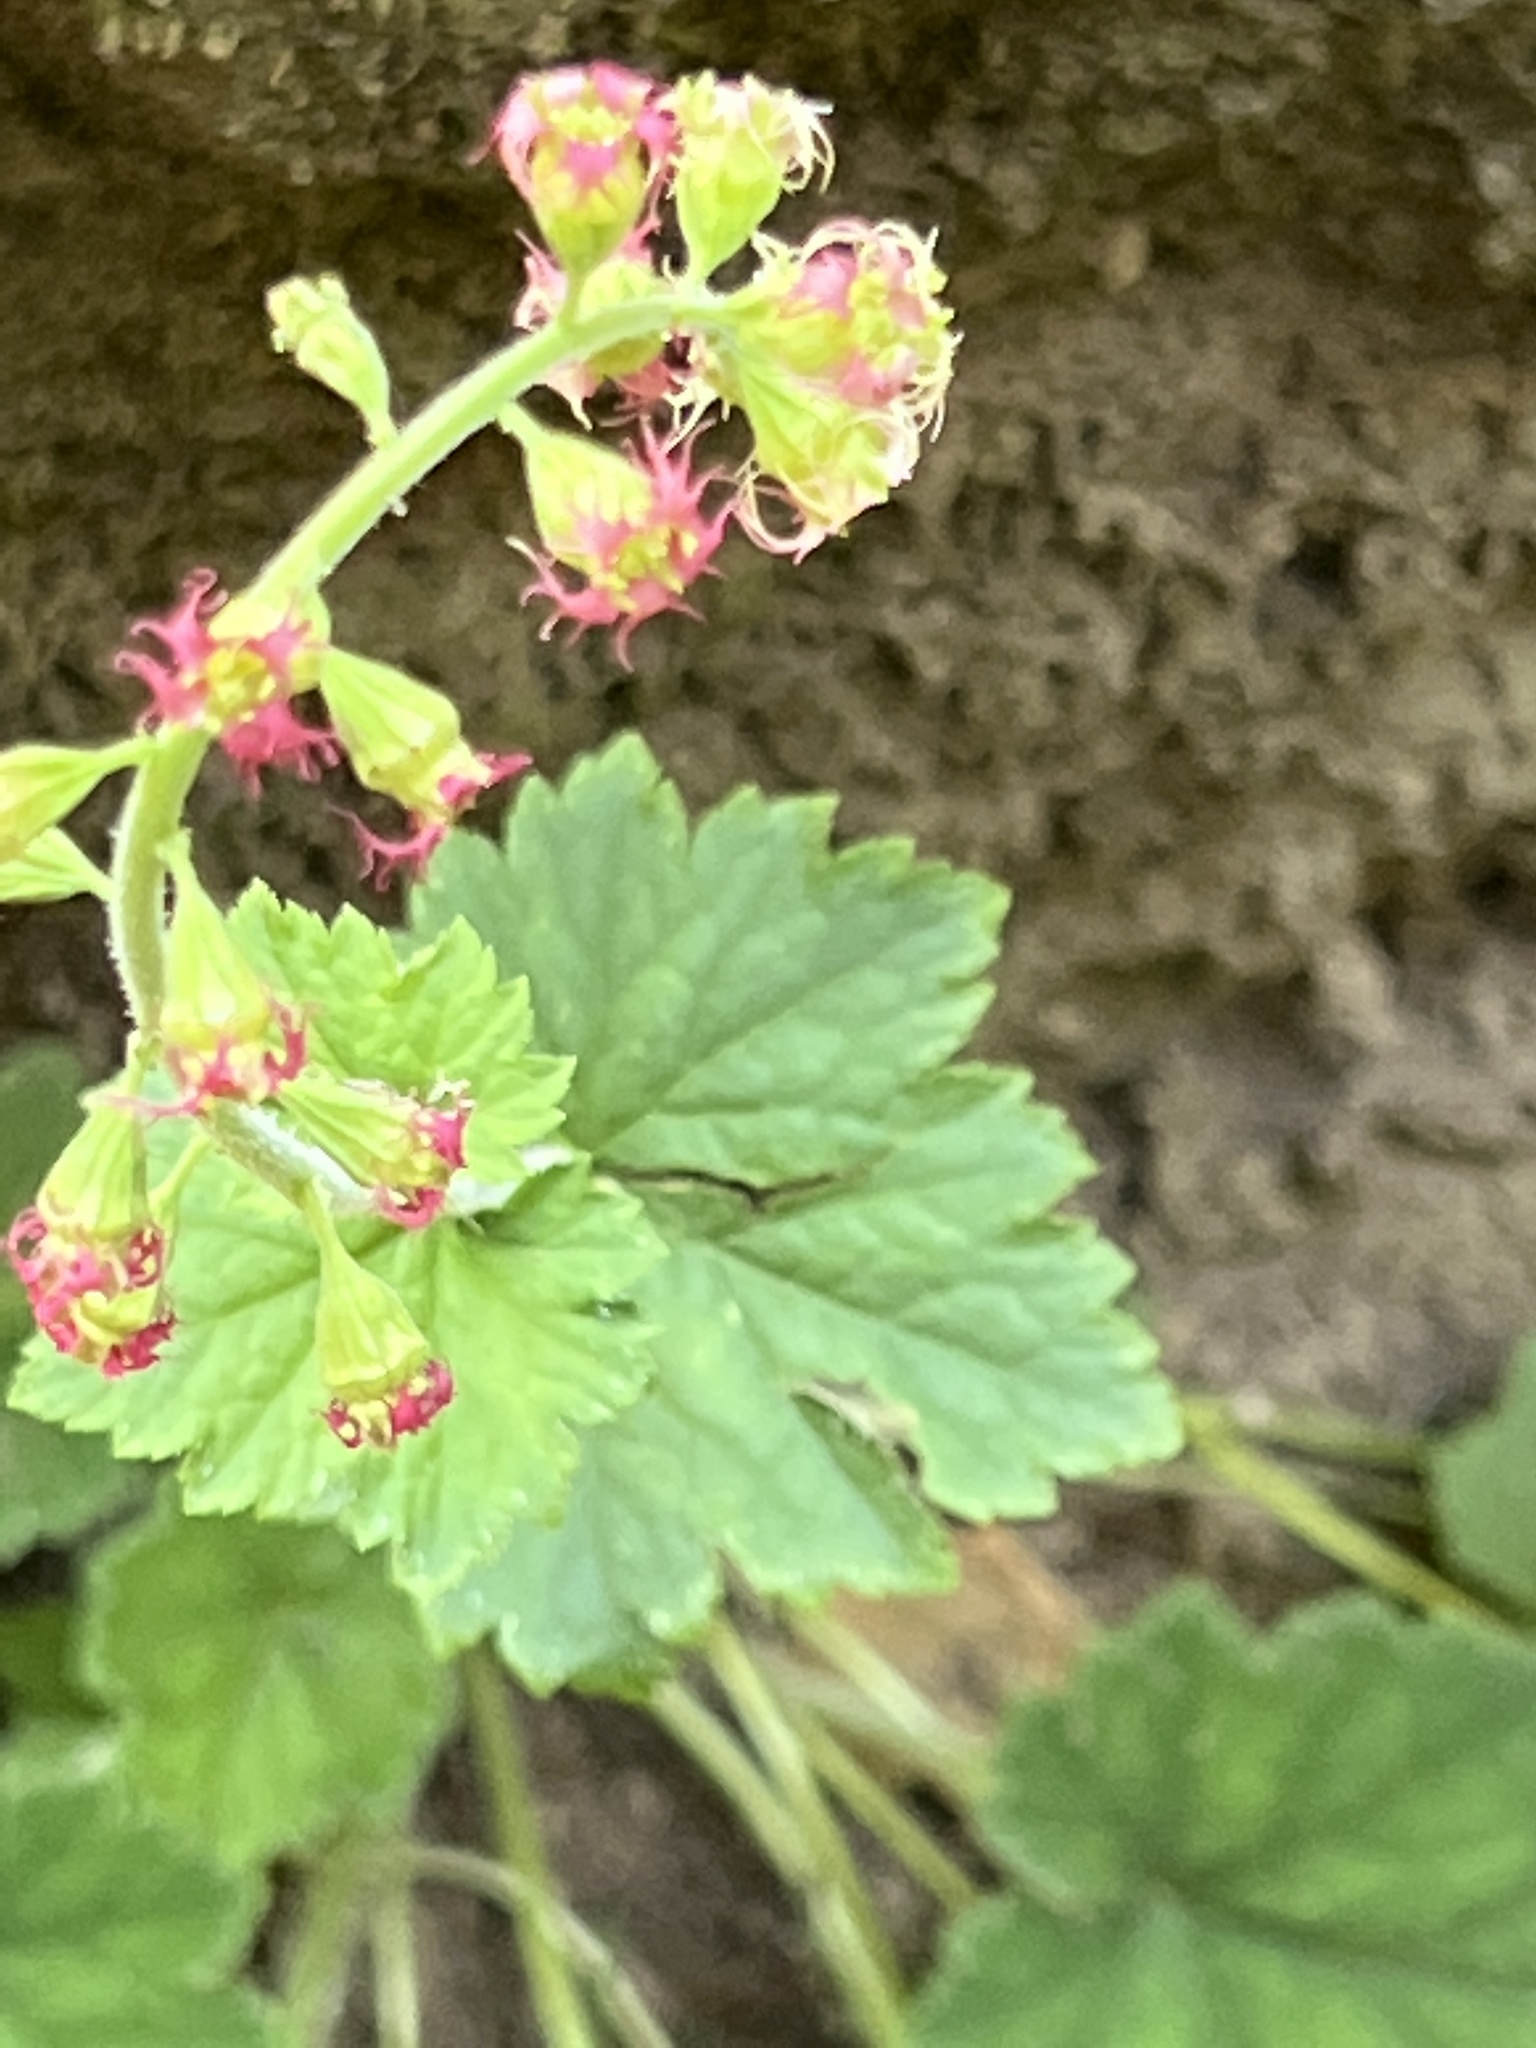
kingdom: Plantae
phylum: Tracheophyta
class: Magnoliopsida
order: Saxifragales
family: Saxifragaceae
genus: Tellima
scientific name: Tellima grandiflora
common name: Fringecups
